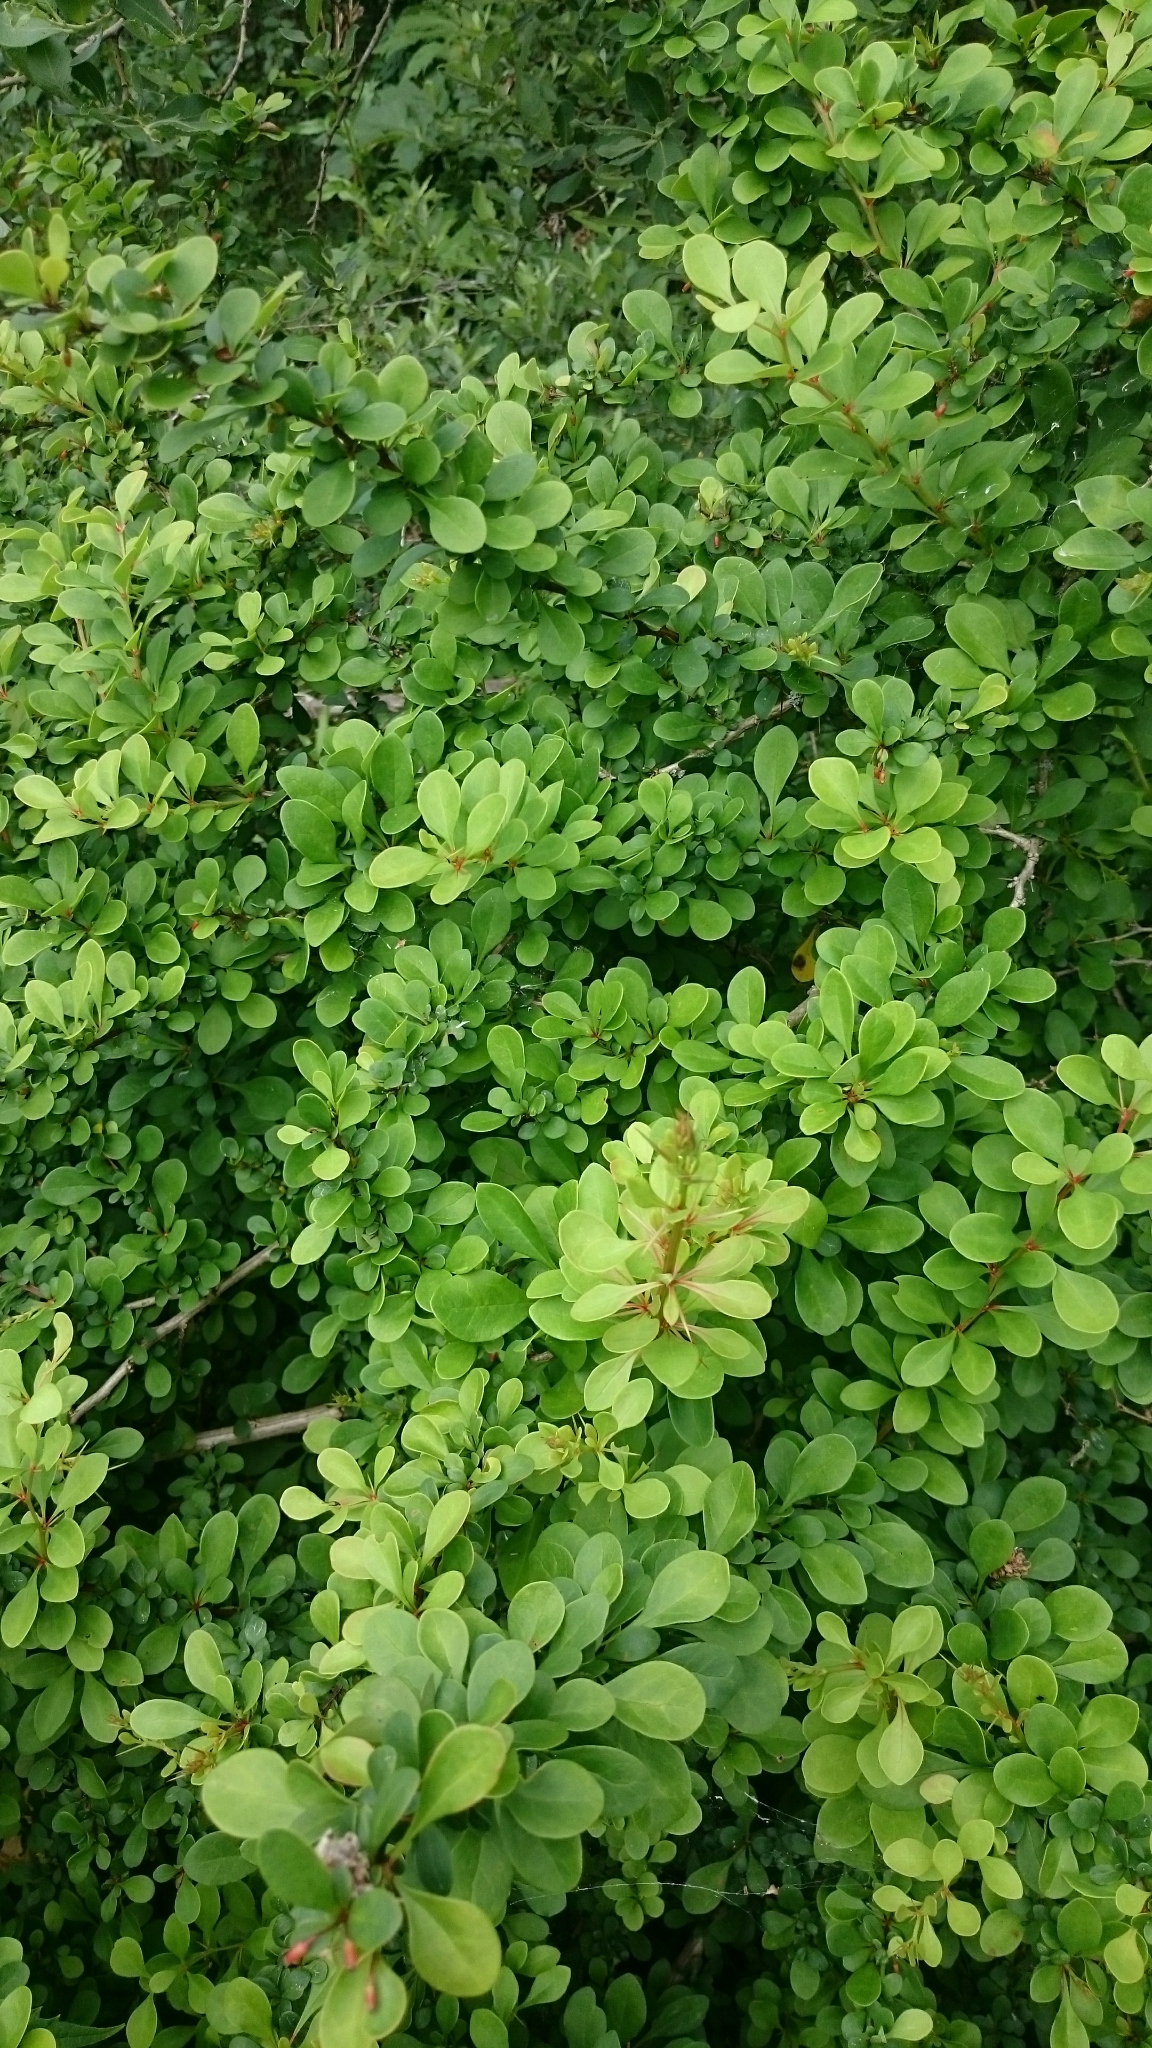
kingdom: Plantae
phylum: Tracheophyta
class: Magnoliopsida
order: Ranunculales
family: Berberidaceae
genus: Berberis
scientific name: Berberis thunbergii
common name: Japanese barberry
